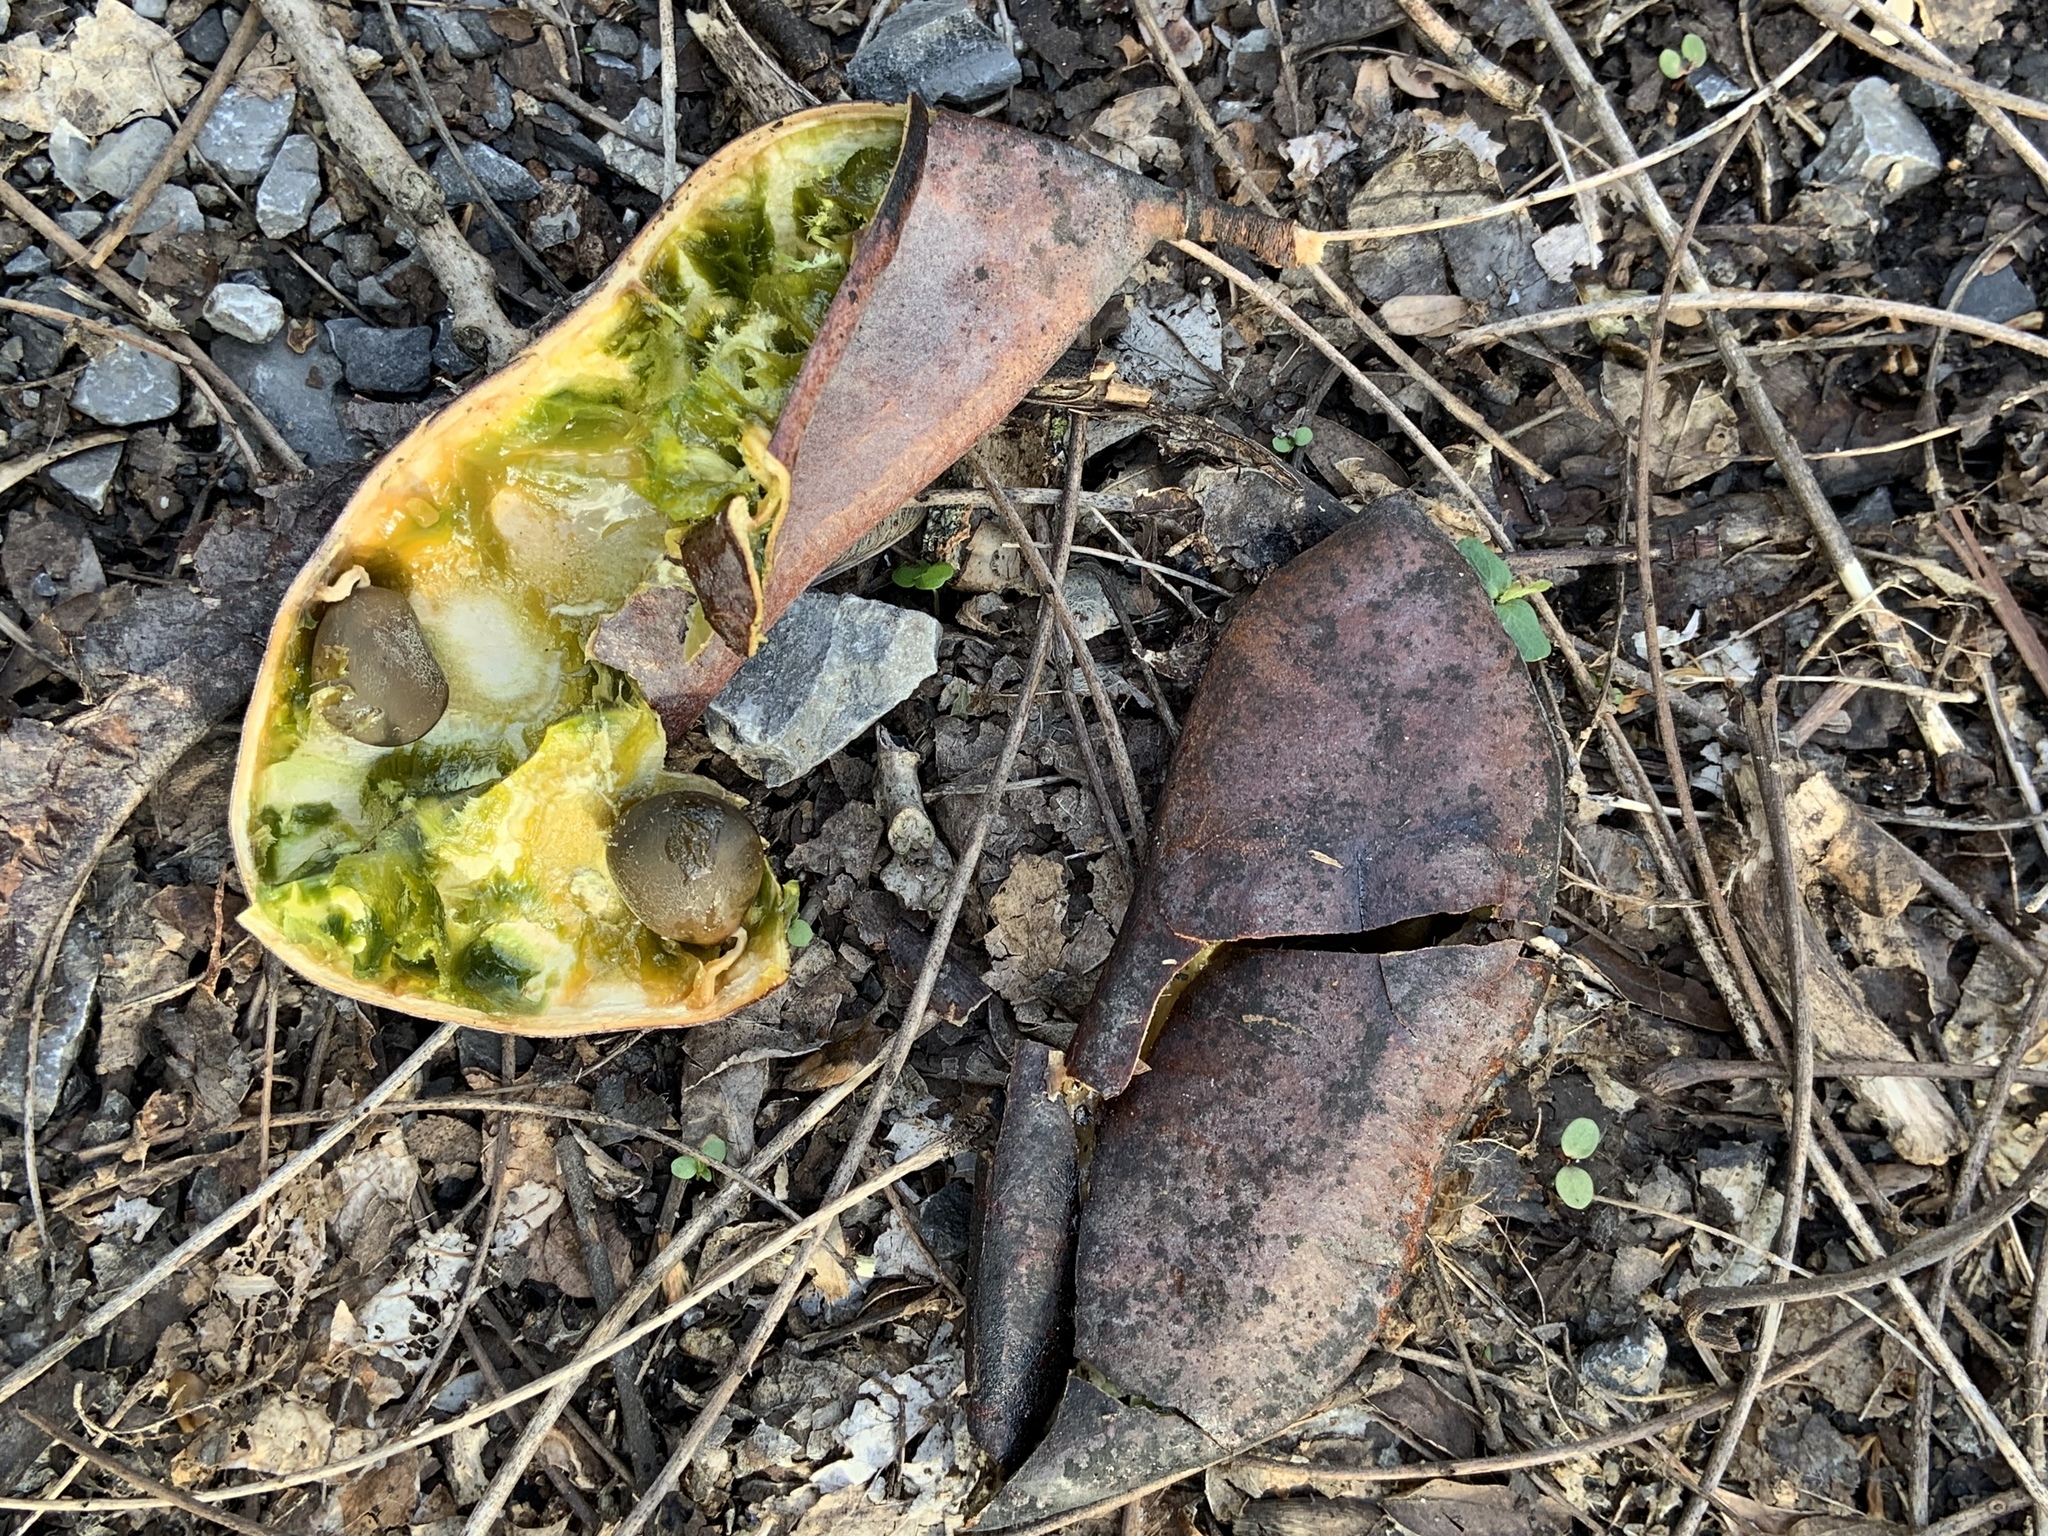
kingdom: Plantae
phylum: Tracheophyta
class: Magnoliopsida
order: Fabales
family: Fabaceae
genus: Gymnocladus
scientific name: Gymnocladus dioicus
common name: Kentucky coffee-tree
